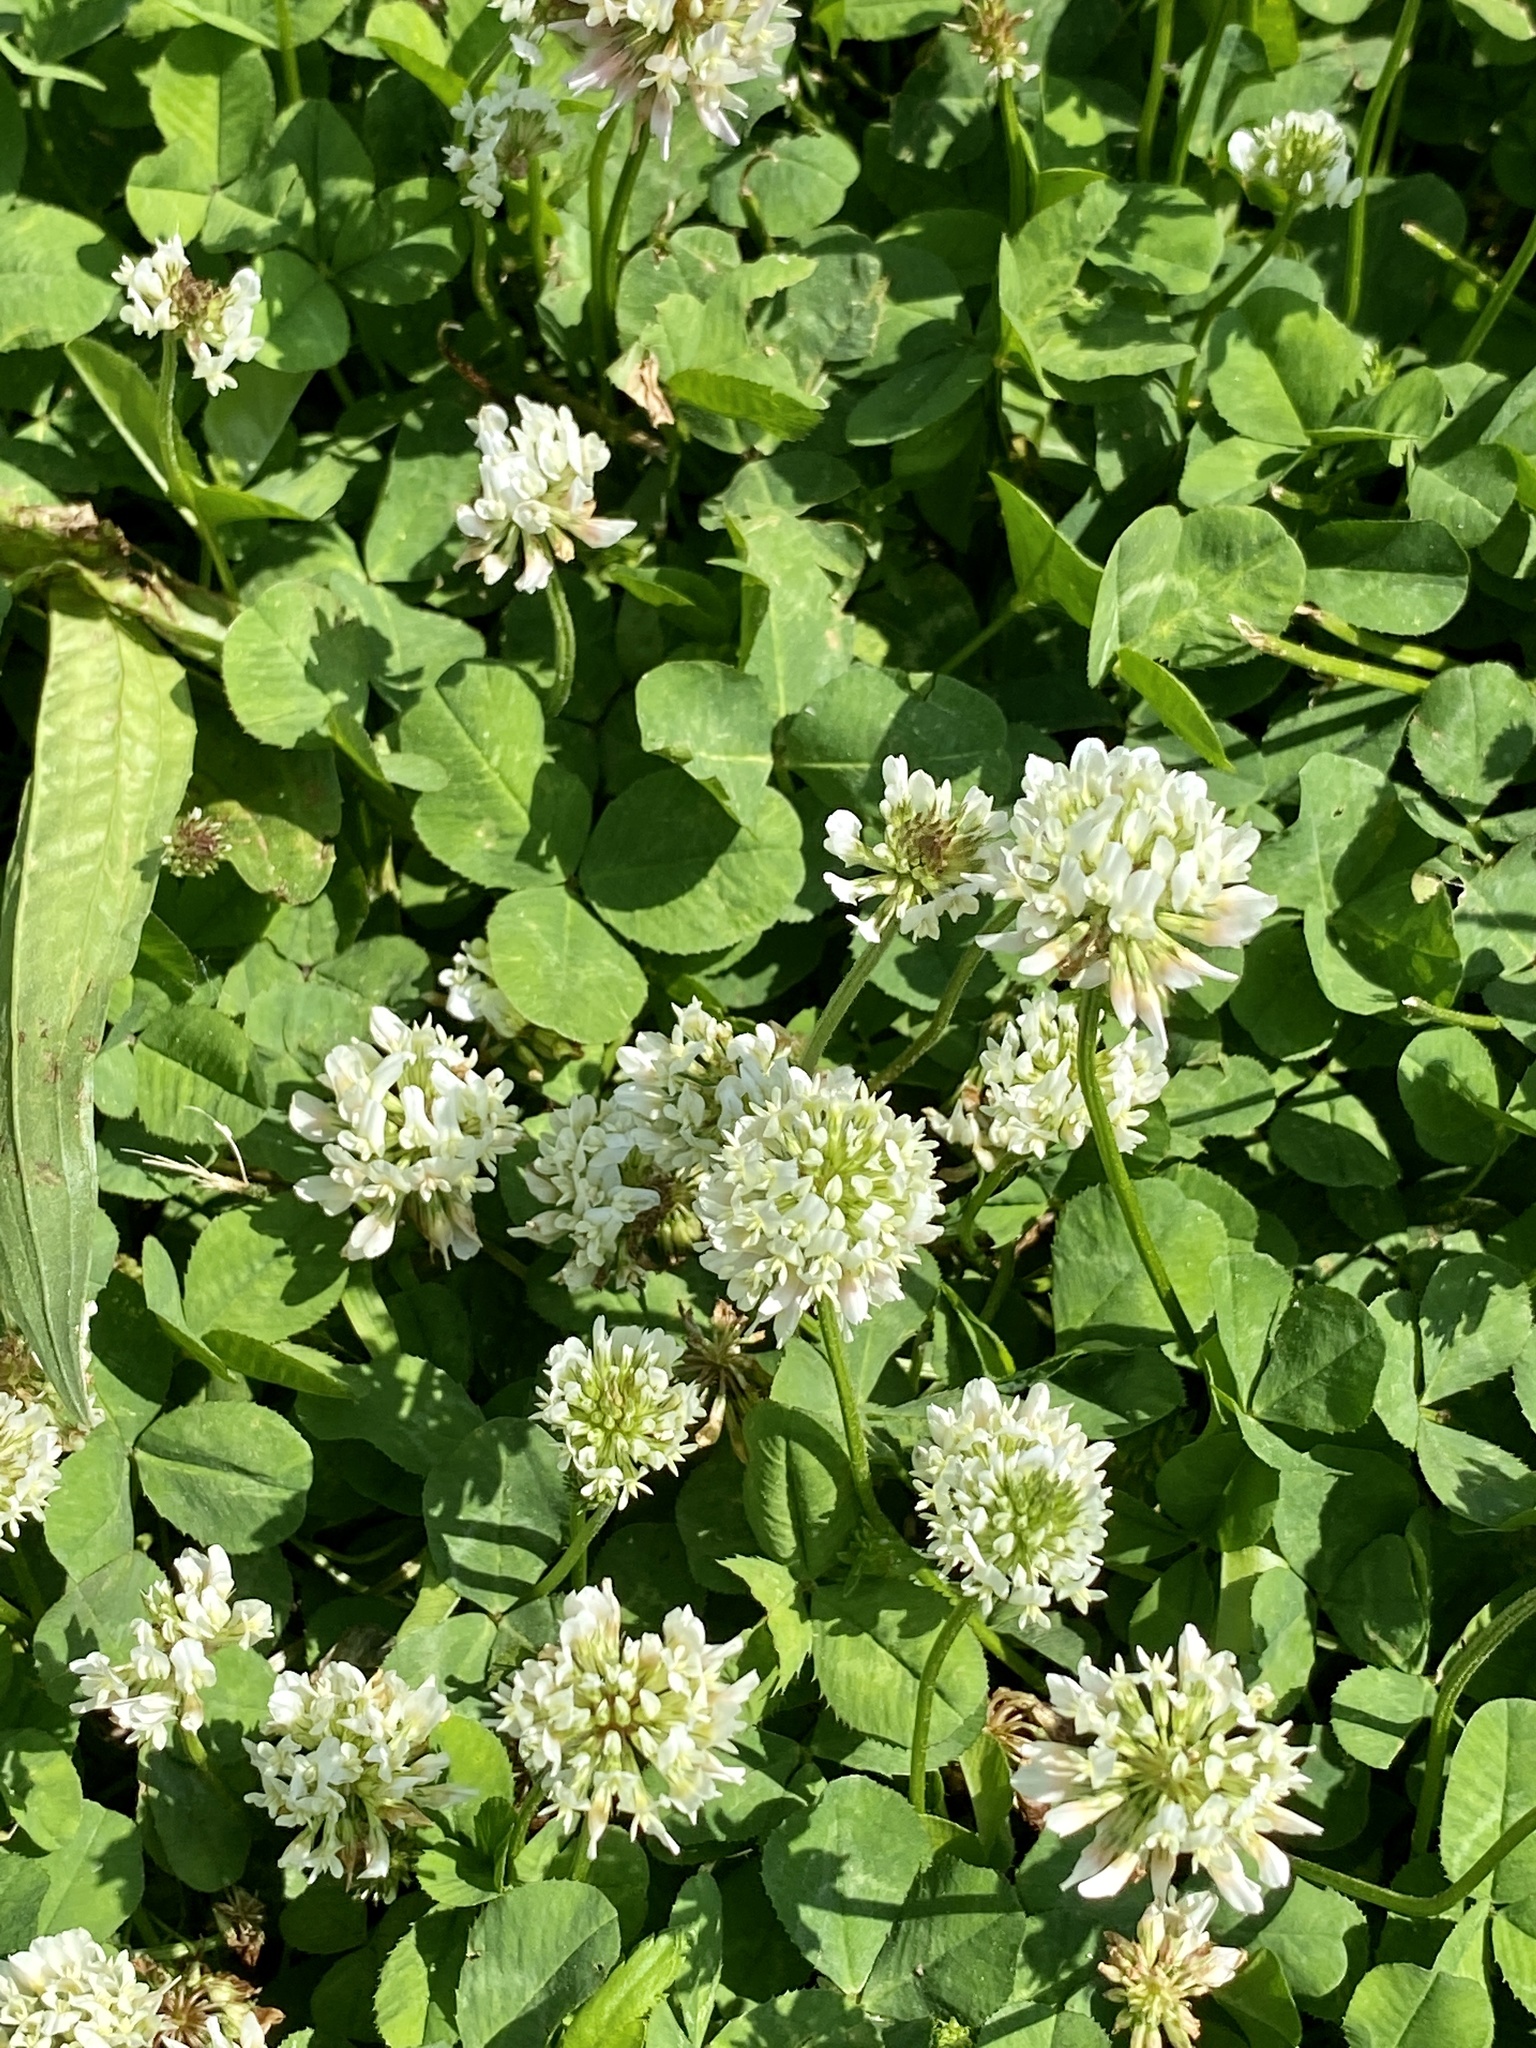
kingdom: Plantae
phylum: Tracheophyta
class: Magnoliopsida
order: Fabales
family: Fabaceae
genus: Trifolium
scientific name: Trifolium repens
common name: White clover
